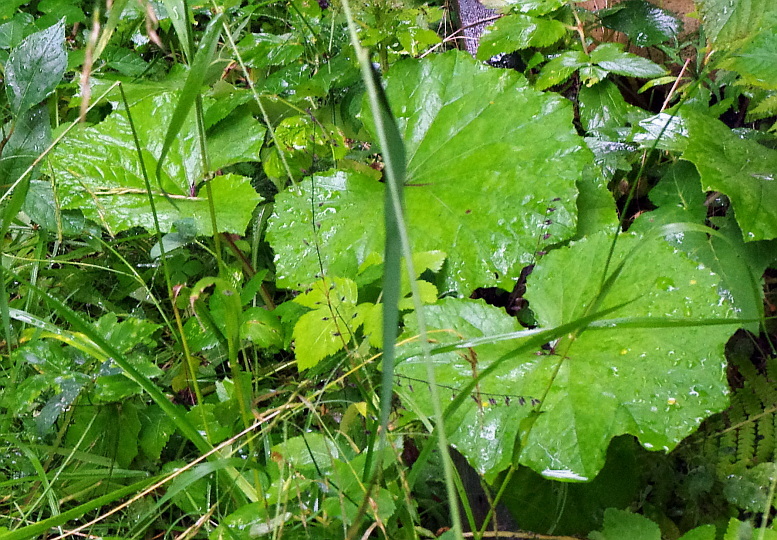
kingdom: Plantae
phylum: Tracheophyta
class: Magnoliopsida
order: Asterales
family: Asteraceae
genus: Tussilago
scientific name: Tussilago farfara
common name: Coltsfoot
